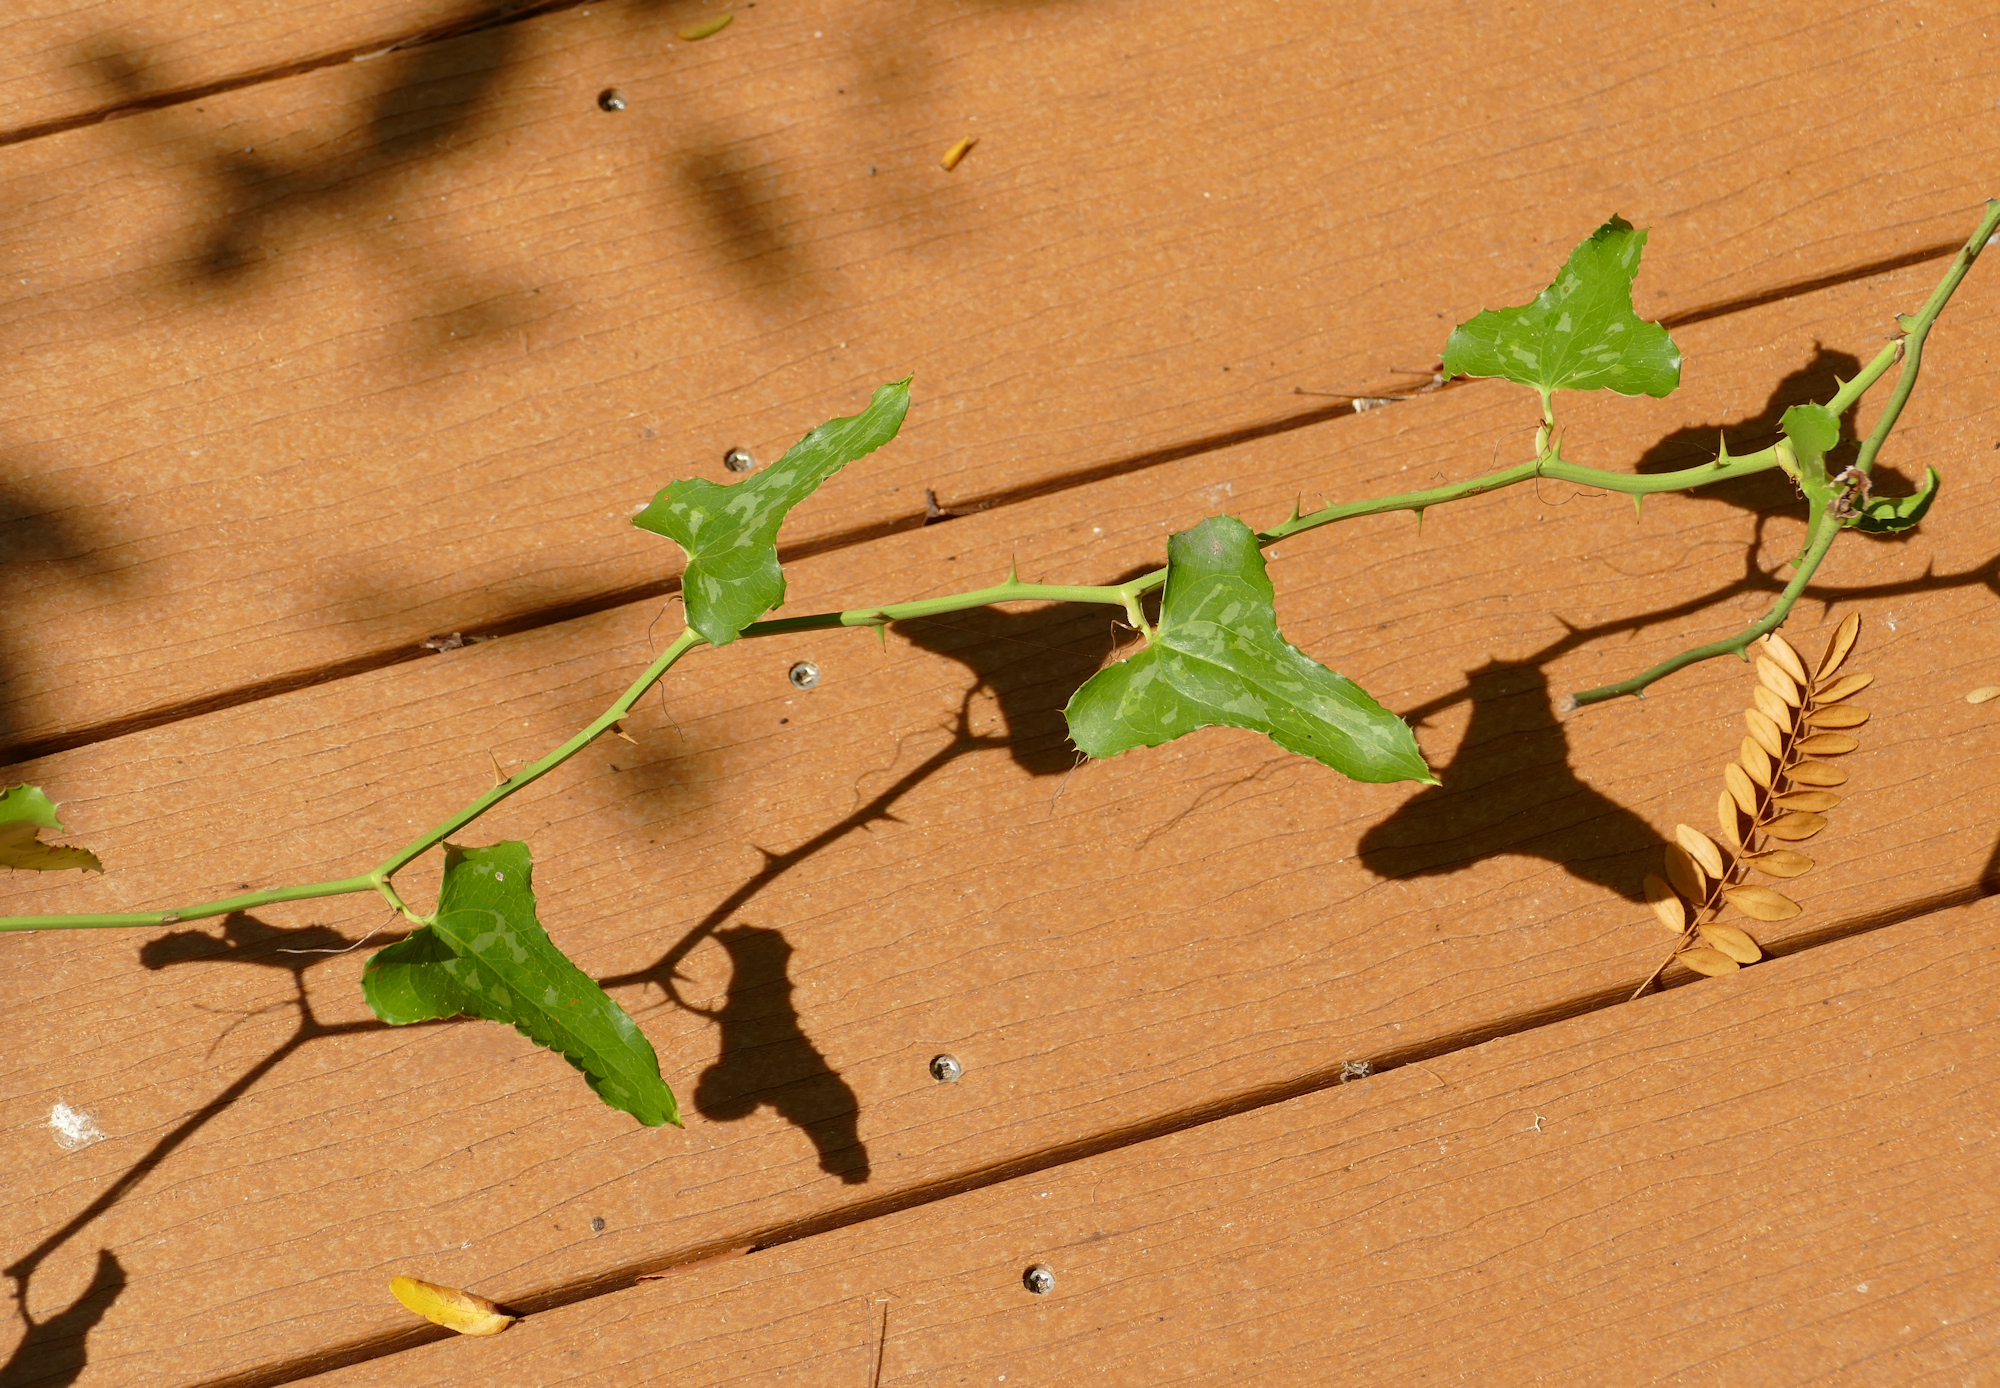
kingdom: Plantae
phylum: Tracheophyta
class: Liliopsida
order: Liliales
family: Smilacaceae
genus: Smilax
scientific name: Smilax bona-nox
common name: Catbrier
